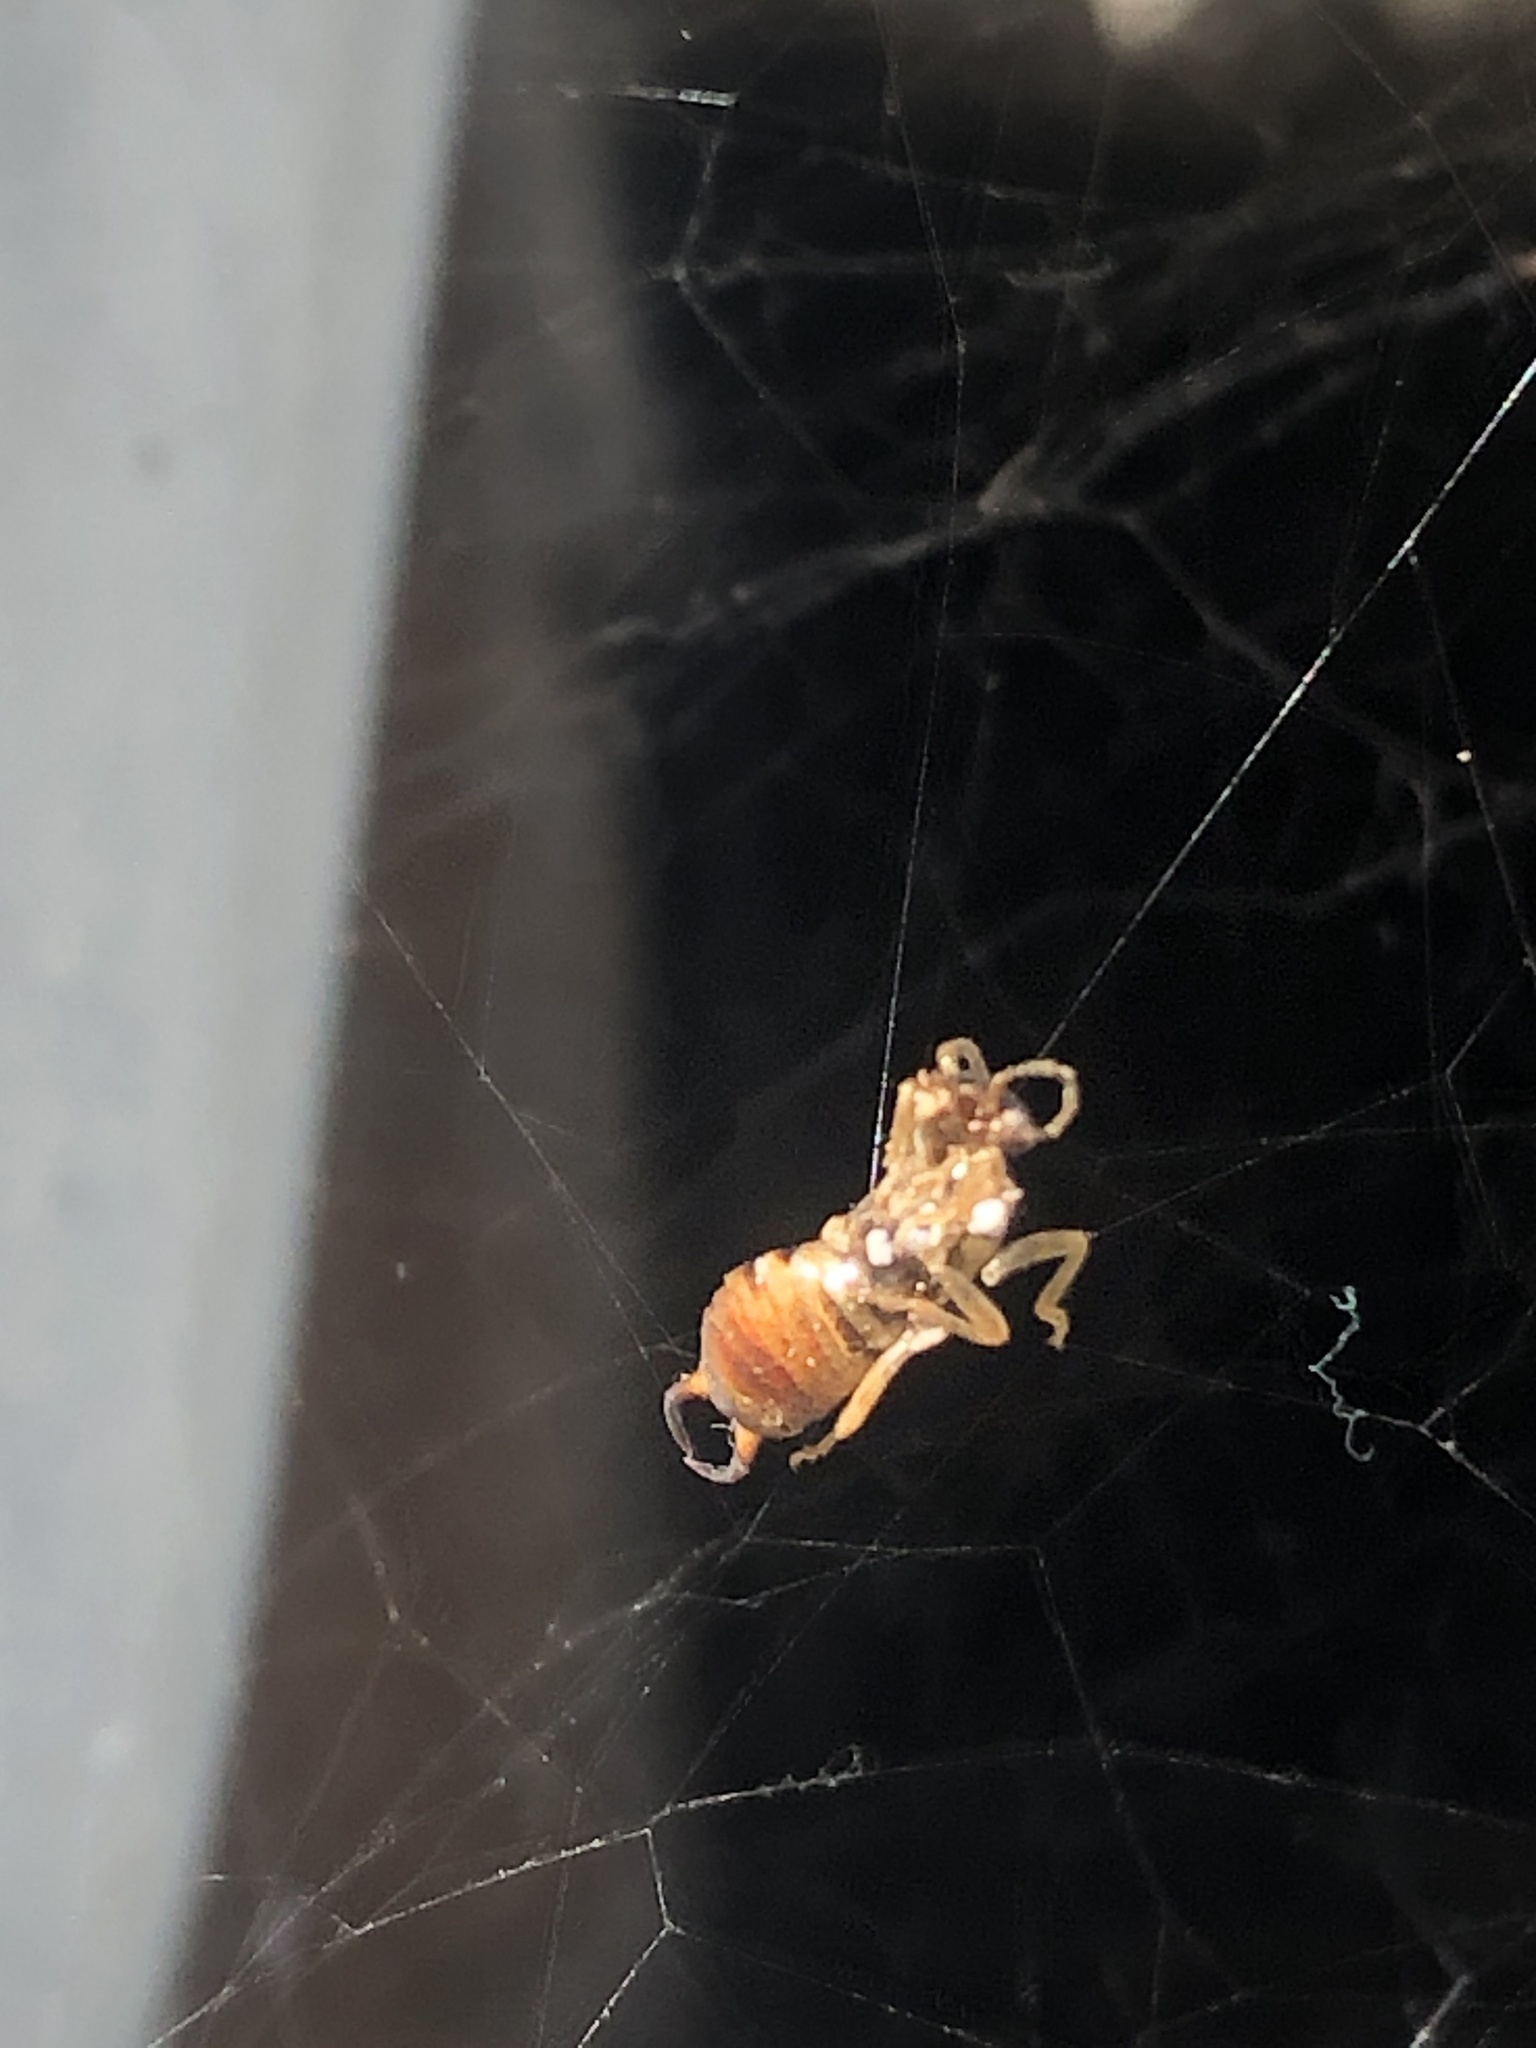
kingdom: Animalia
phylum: Arthropoda
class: Insecta
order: Dermaptera
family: Forficulidae
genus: Forficula
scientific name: Forficula dentata
